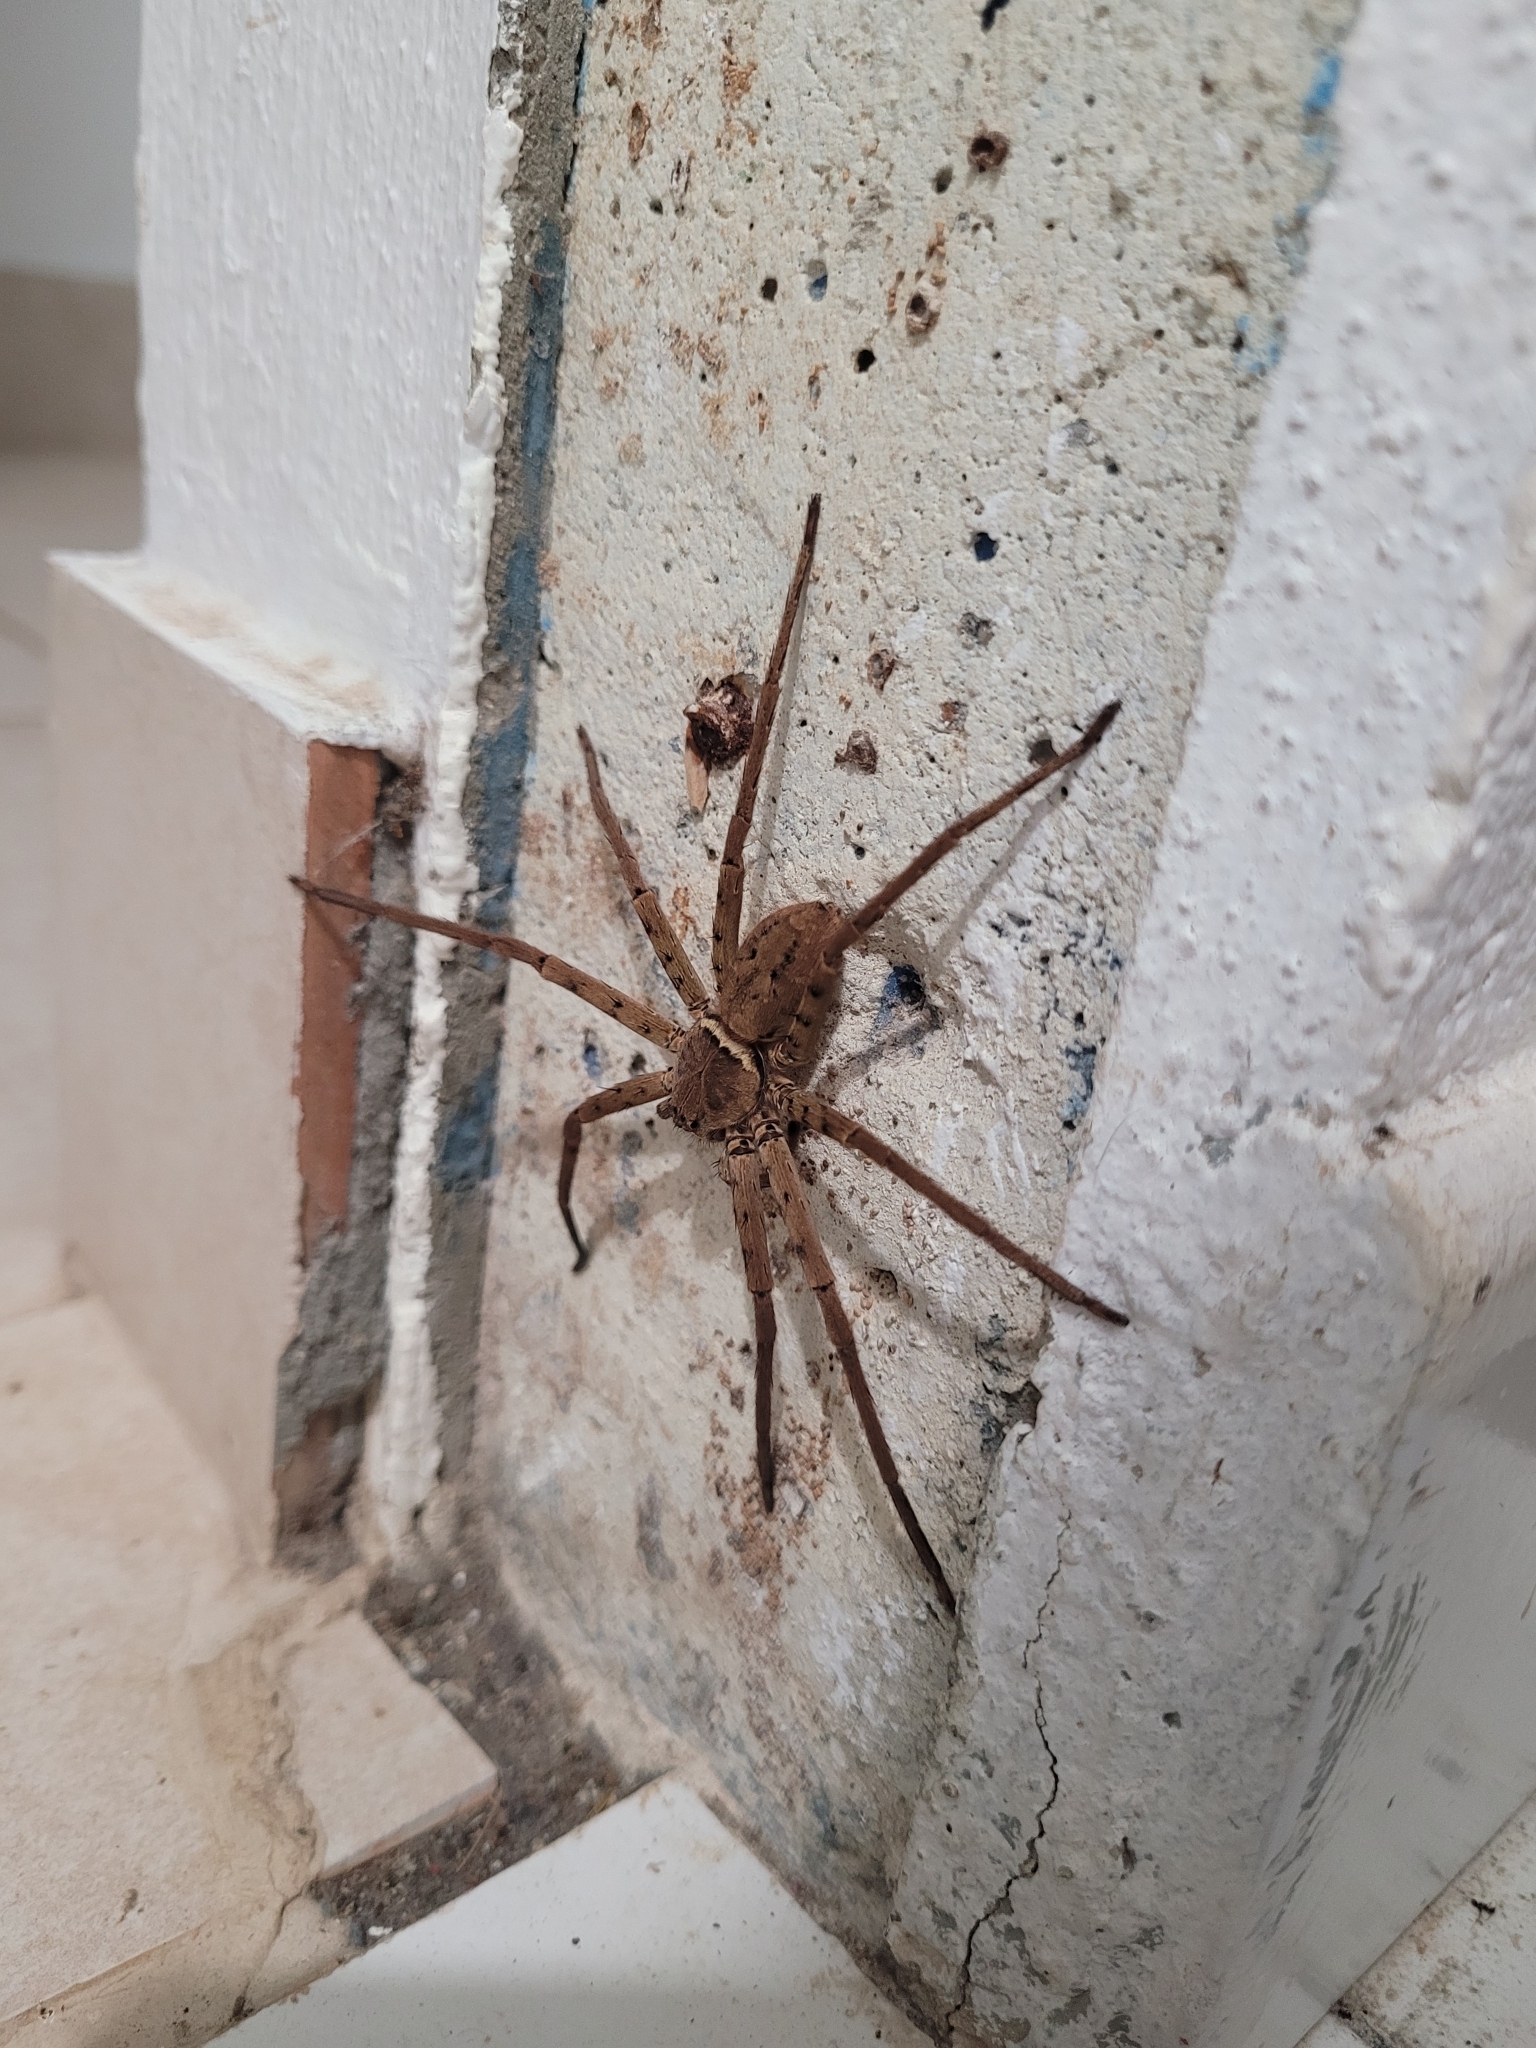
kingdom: Animalia
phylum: Arthropoda
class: Arachnida
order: Araneae
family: Sparassidae
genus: Heteropoda
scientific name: Heteropoda venatoria
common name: Huntsman spider
